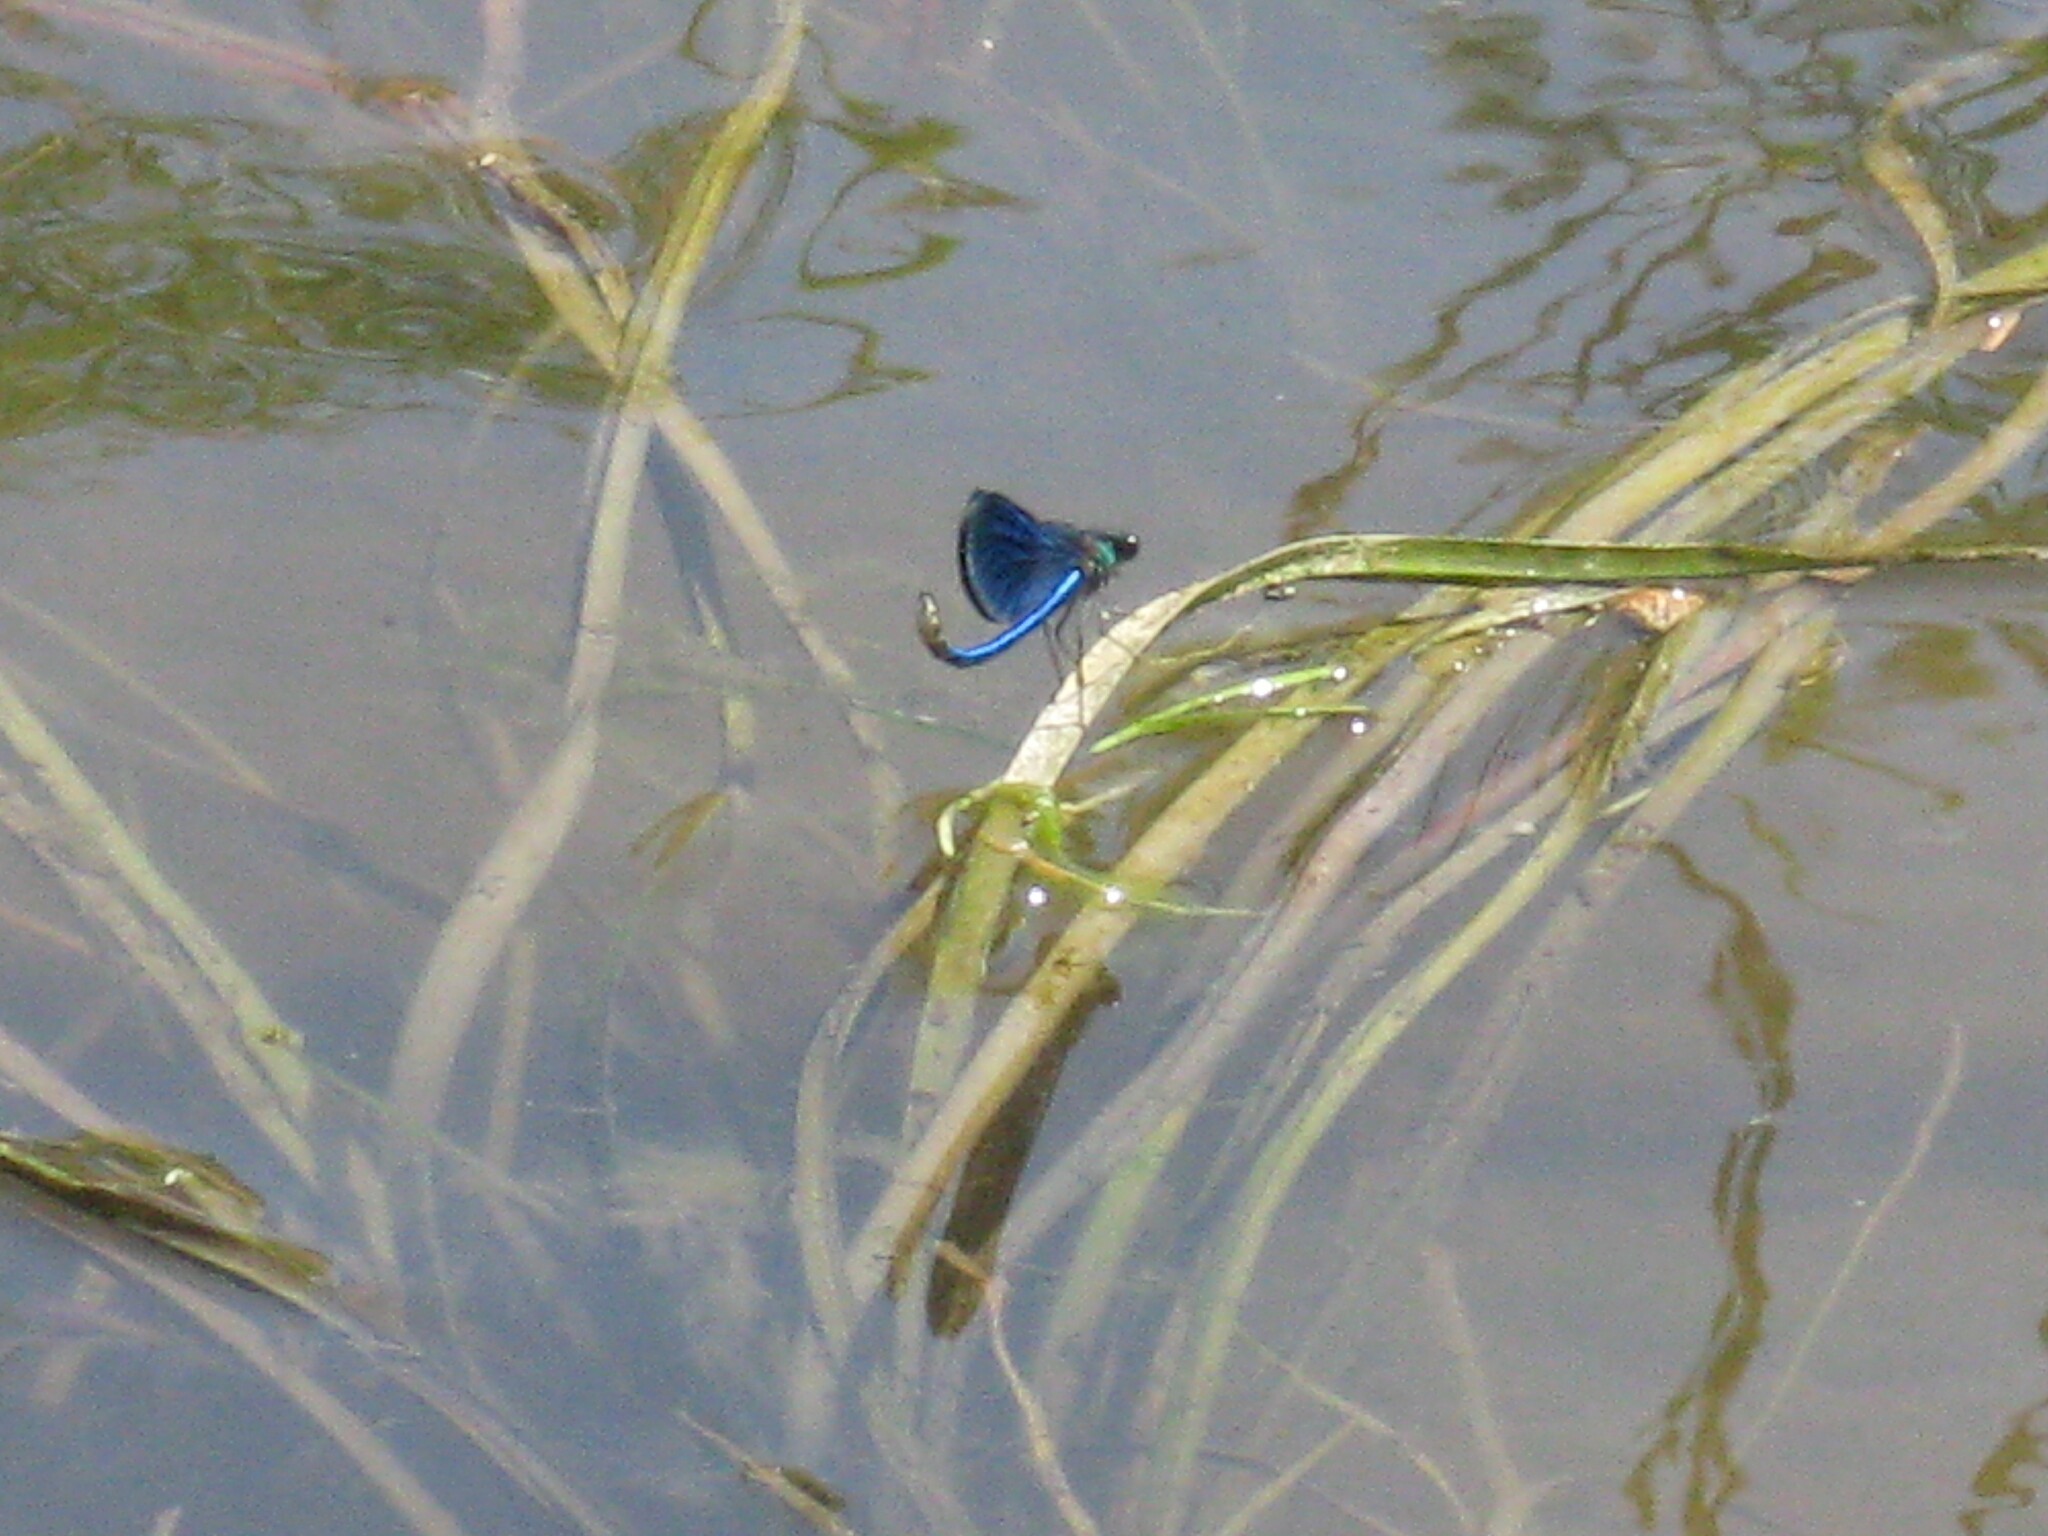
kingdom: Animalia
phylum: Arthropoda
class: Insecta
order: Odonata
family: Calopterygidae
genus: Calopteryx
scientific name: Calopteryx splendens
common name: Banded demoiselle
